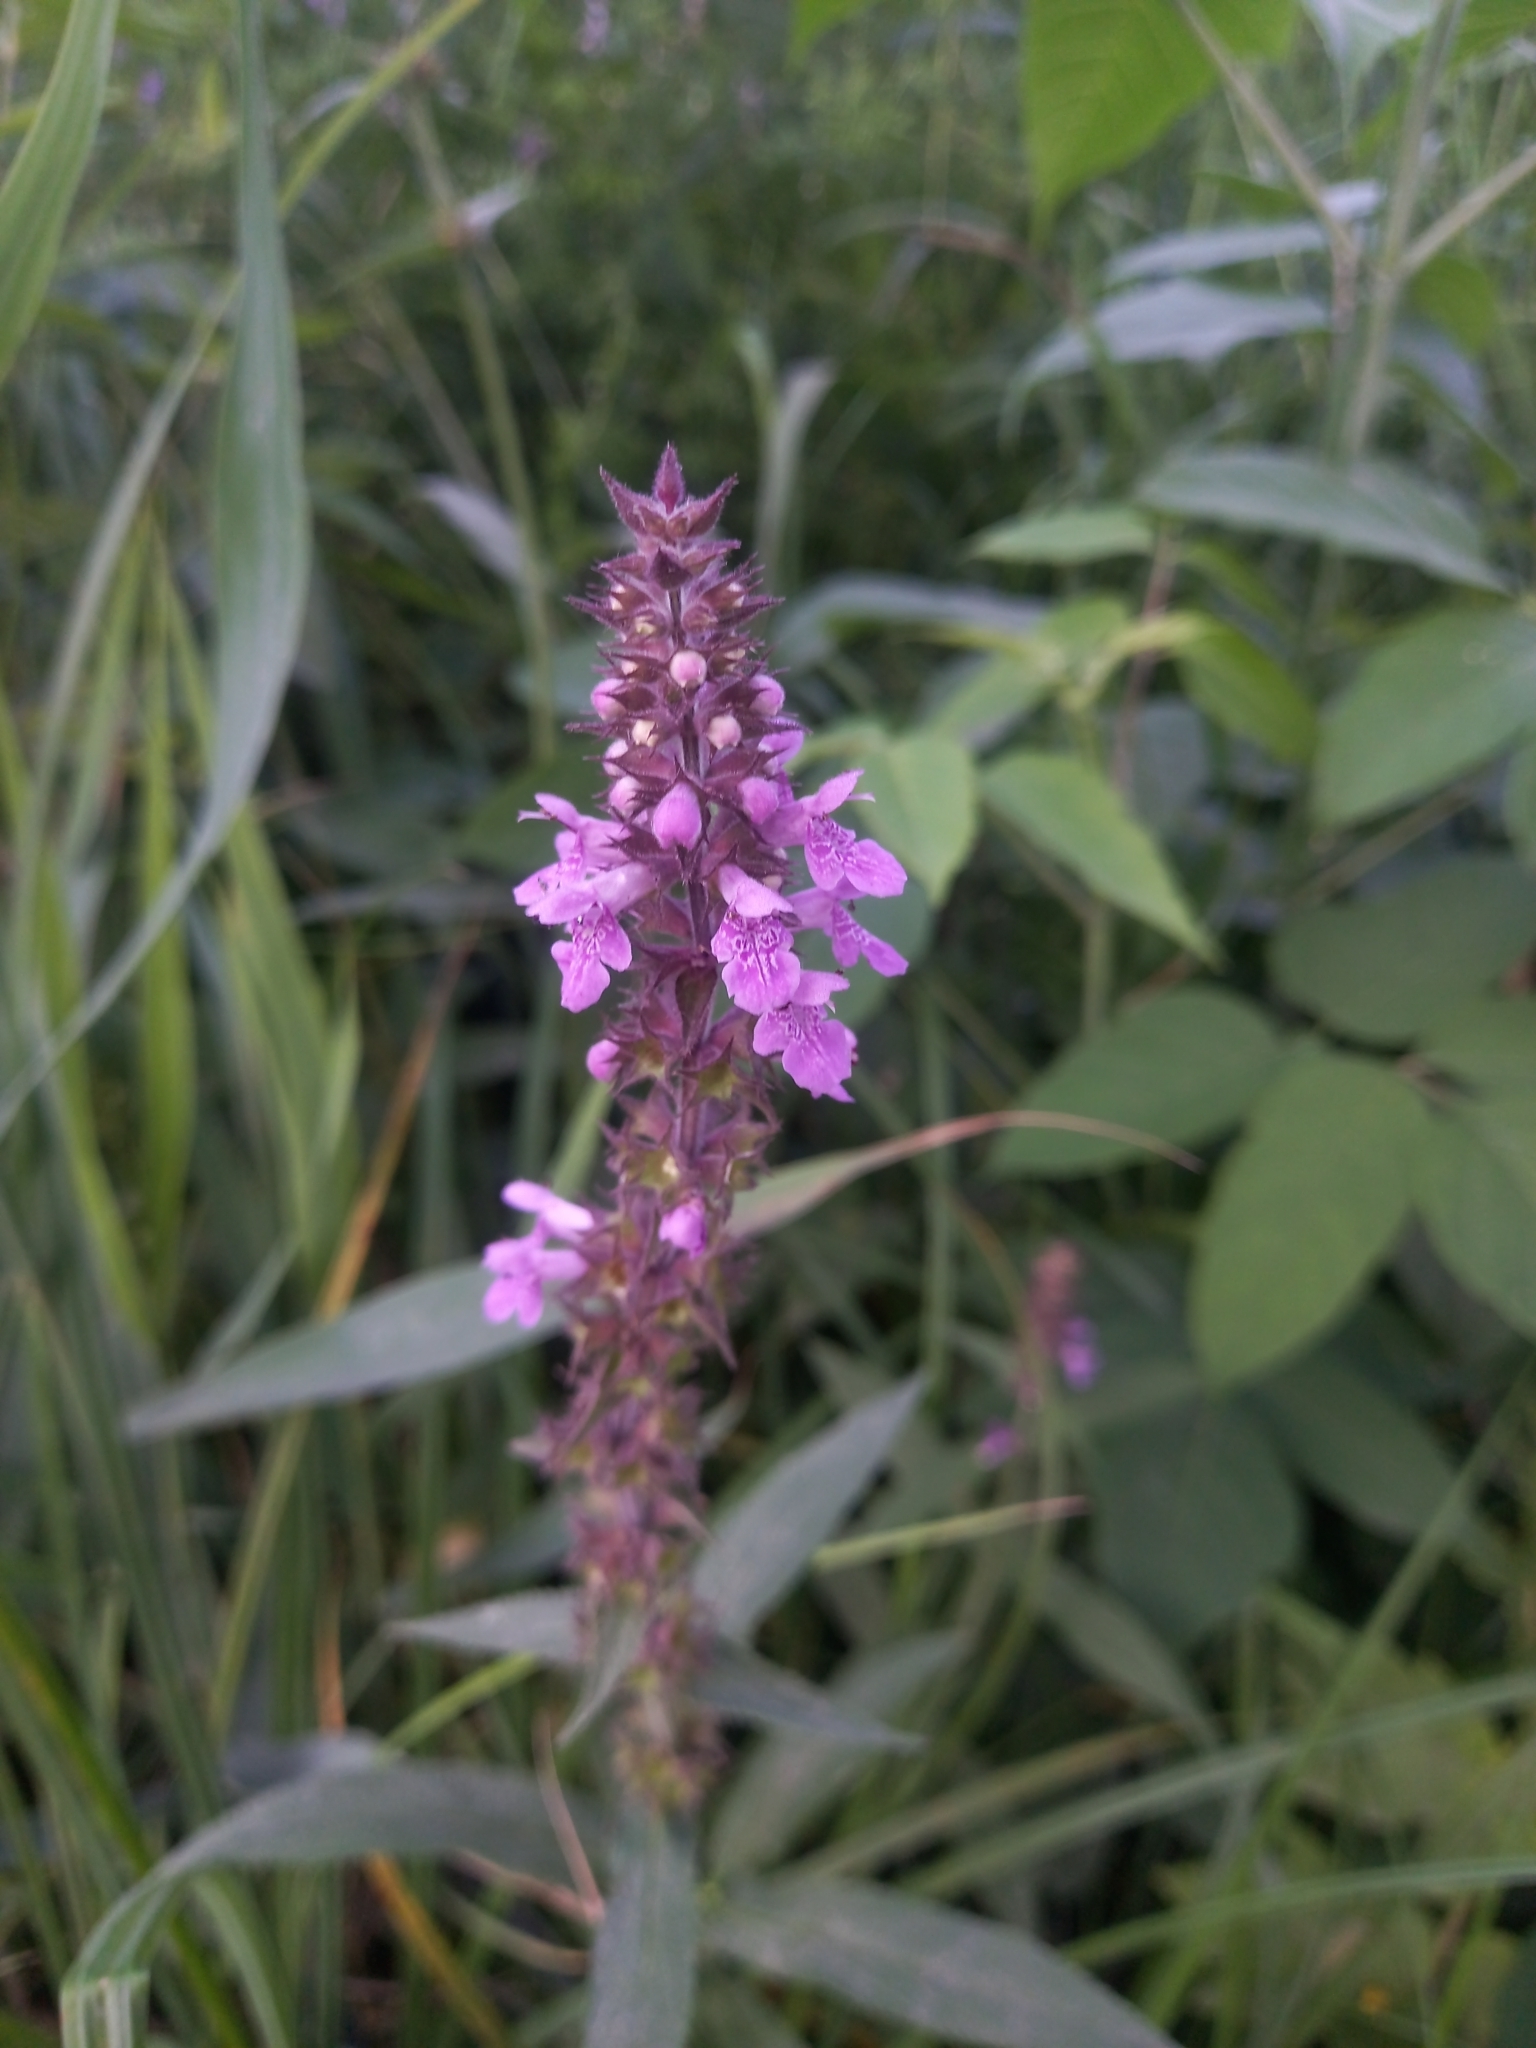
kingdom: Plantae
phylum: Tracheophyta
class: Magnoliopsida
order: Lamiales
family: Lamiaceae
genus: Stachys
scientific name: Stachys palustris
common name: Marsh woundwort
